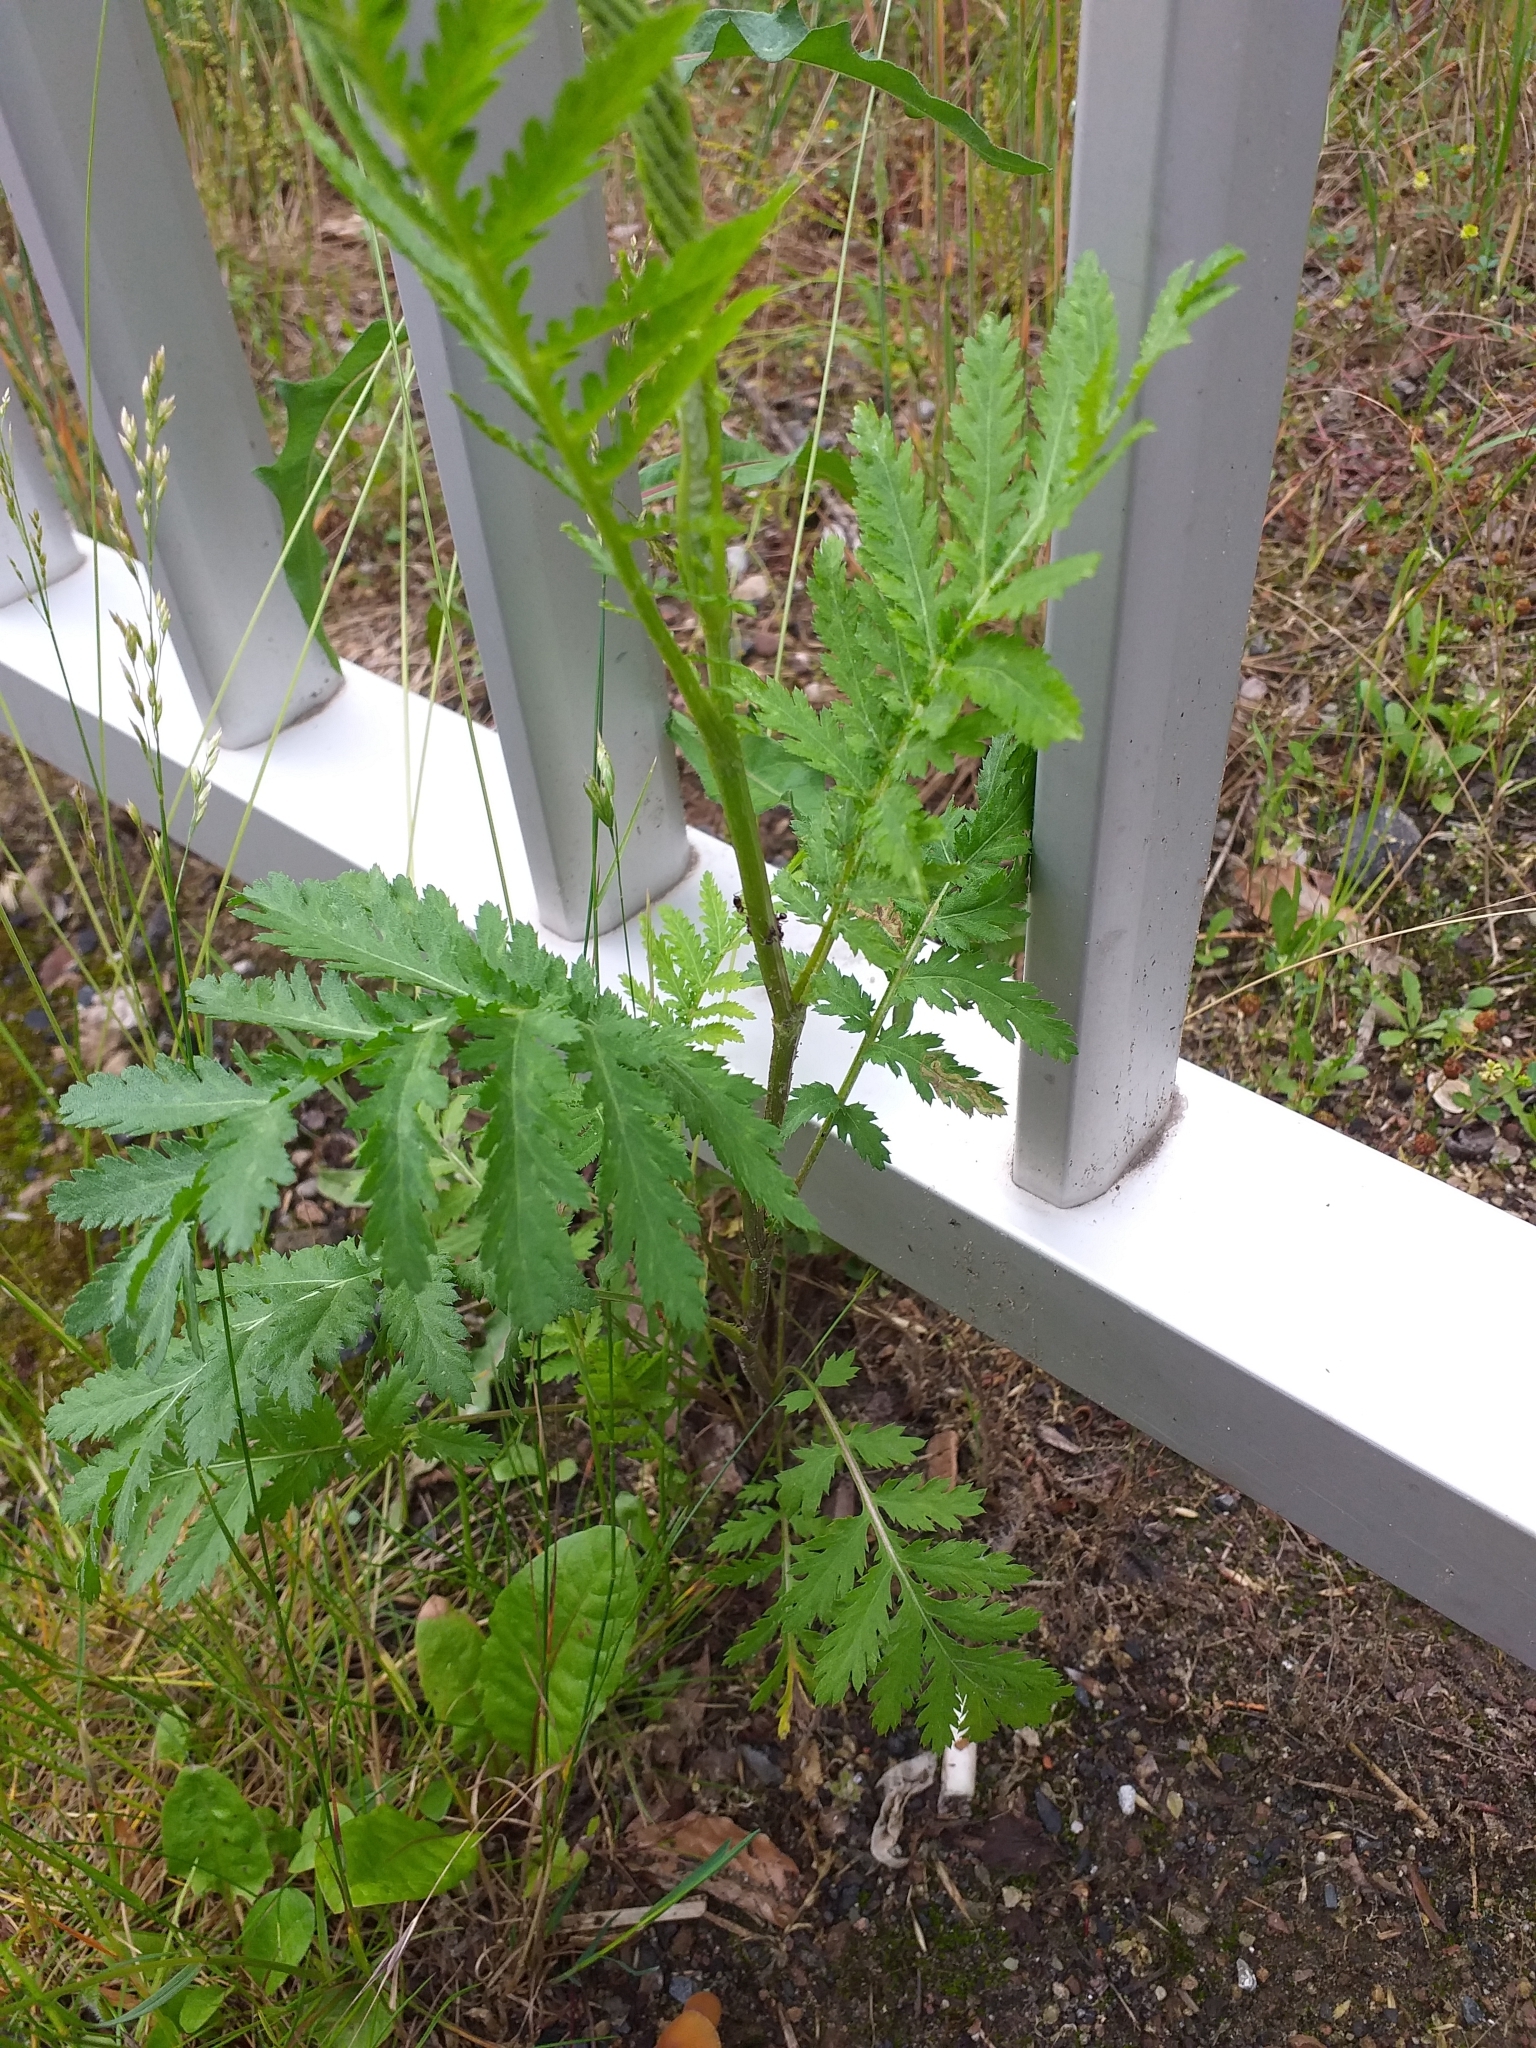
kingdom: Plantae
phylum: Tracheophyta
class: Magnoliopsida
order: Asterales
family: Asteraceae
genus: Tanacetum
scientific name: Tanacetum vulgare
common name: Common tansy
